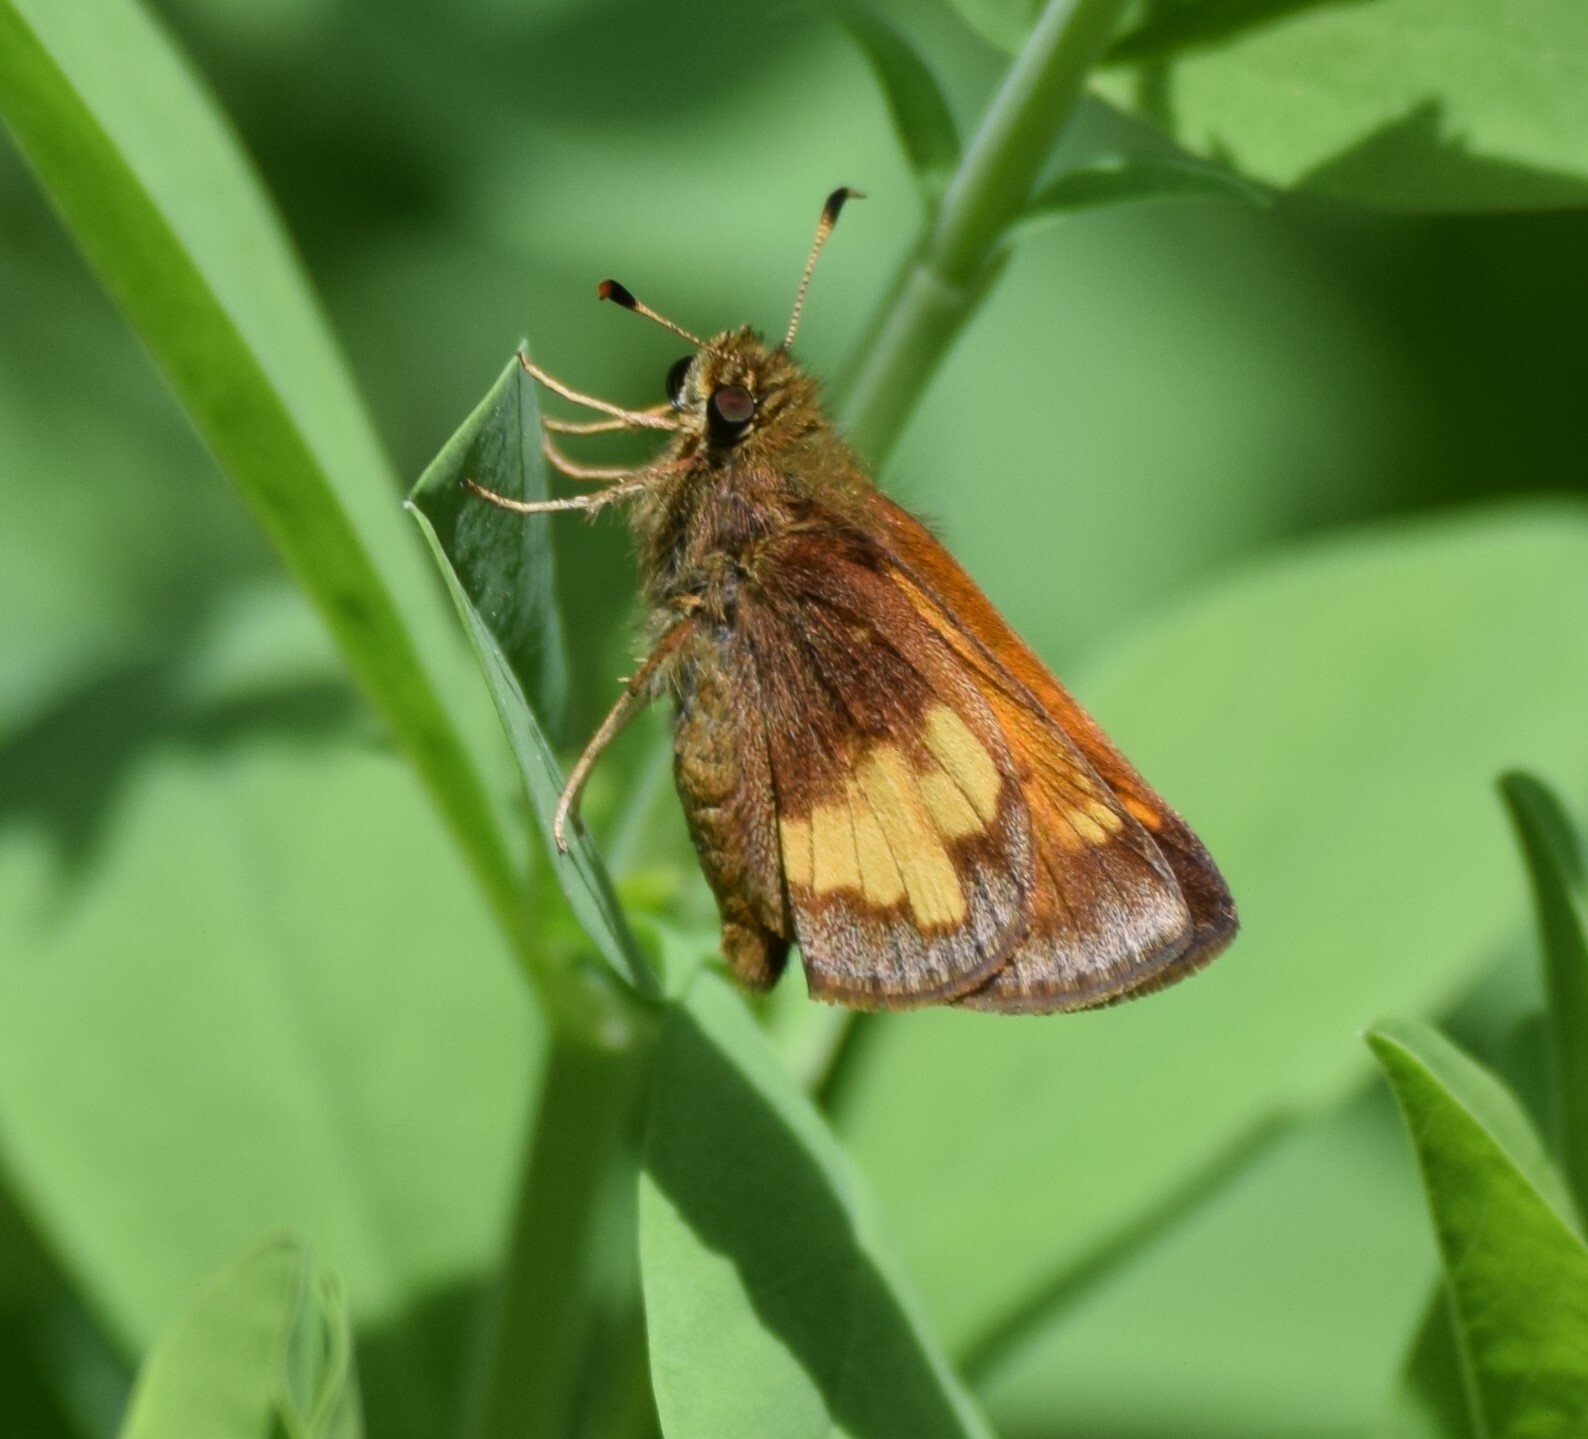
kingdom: Animalia
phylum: Arthropoda
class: Insecta
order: Lepidoptera
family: Hesperiidae
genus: Lon
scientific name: Lon hobomok
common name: Hobomok skipper
